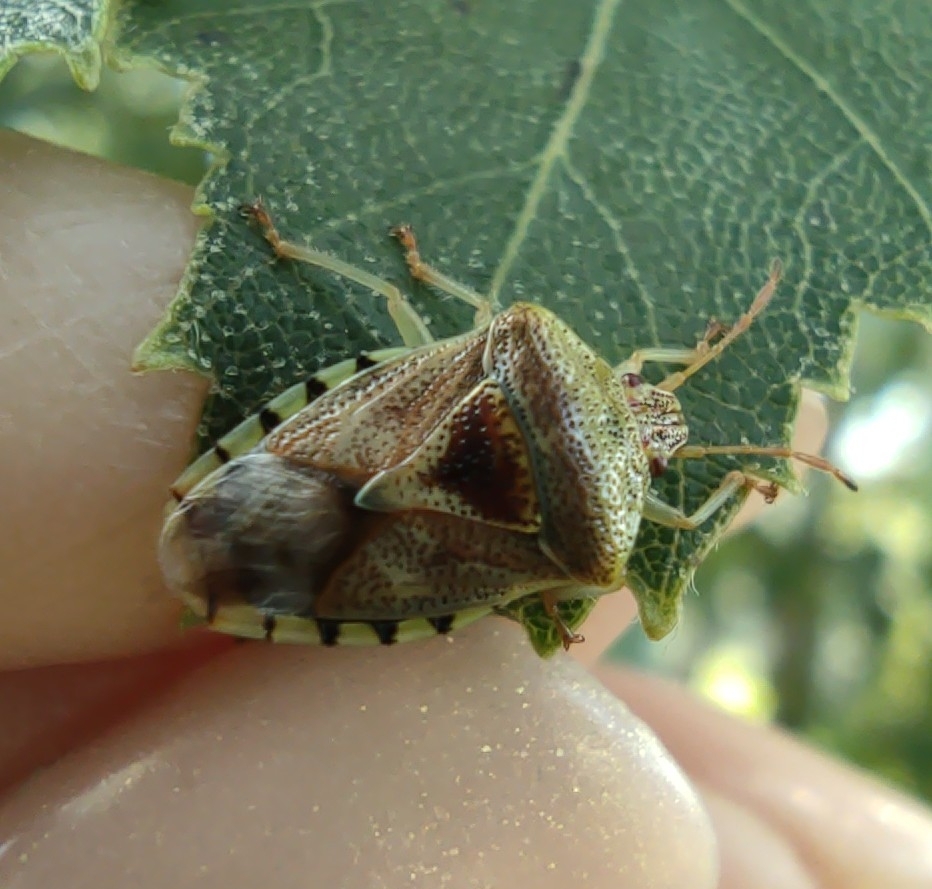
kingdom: Animalia
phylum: Arthropoda
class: Insecta
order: Hemiptera
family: Acanthosomatidae
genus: Elasmucha
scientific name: Elasmucha grisea
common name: Parent bug
